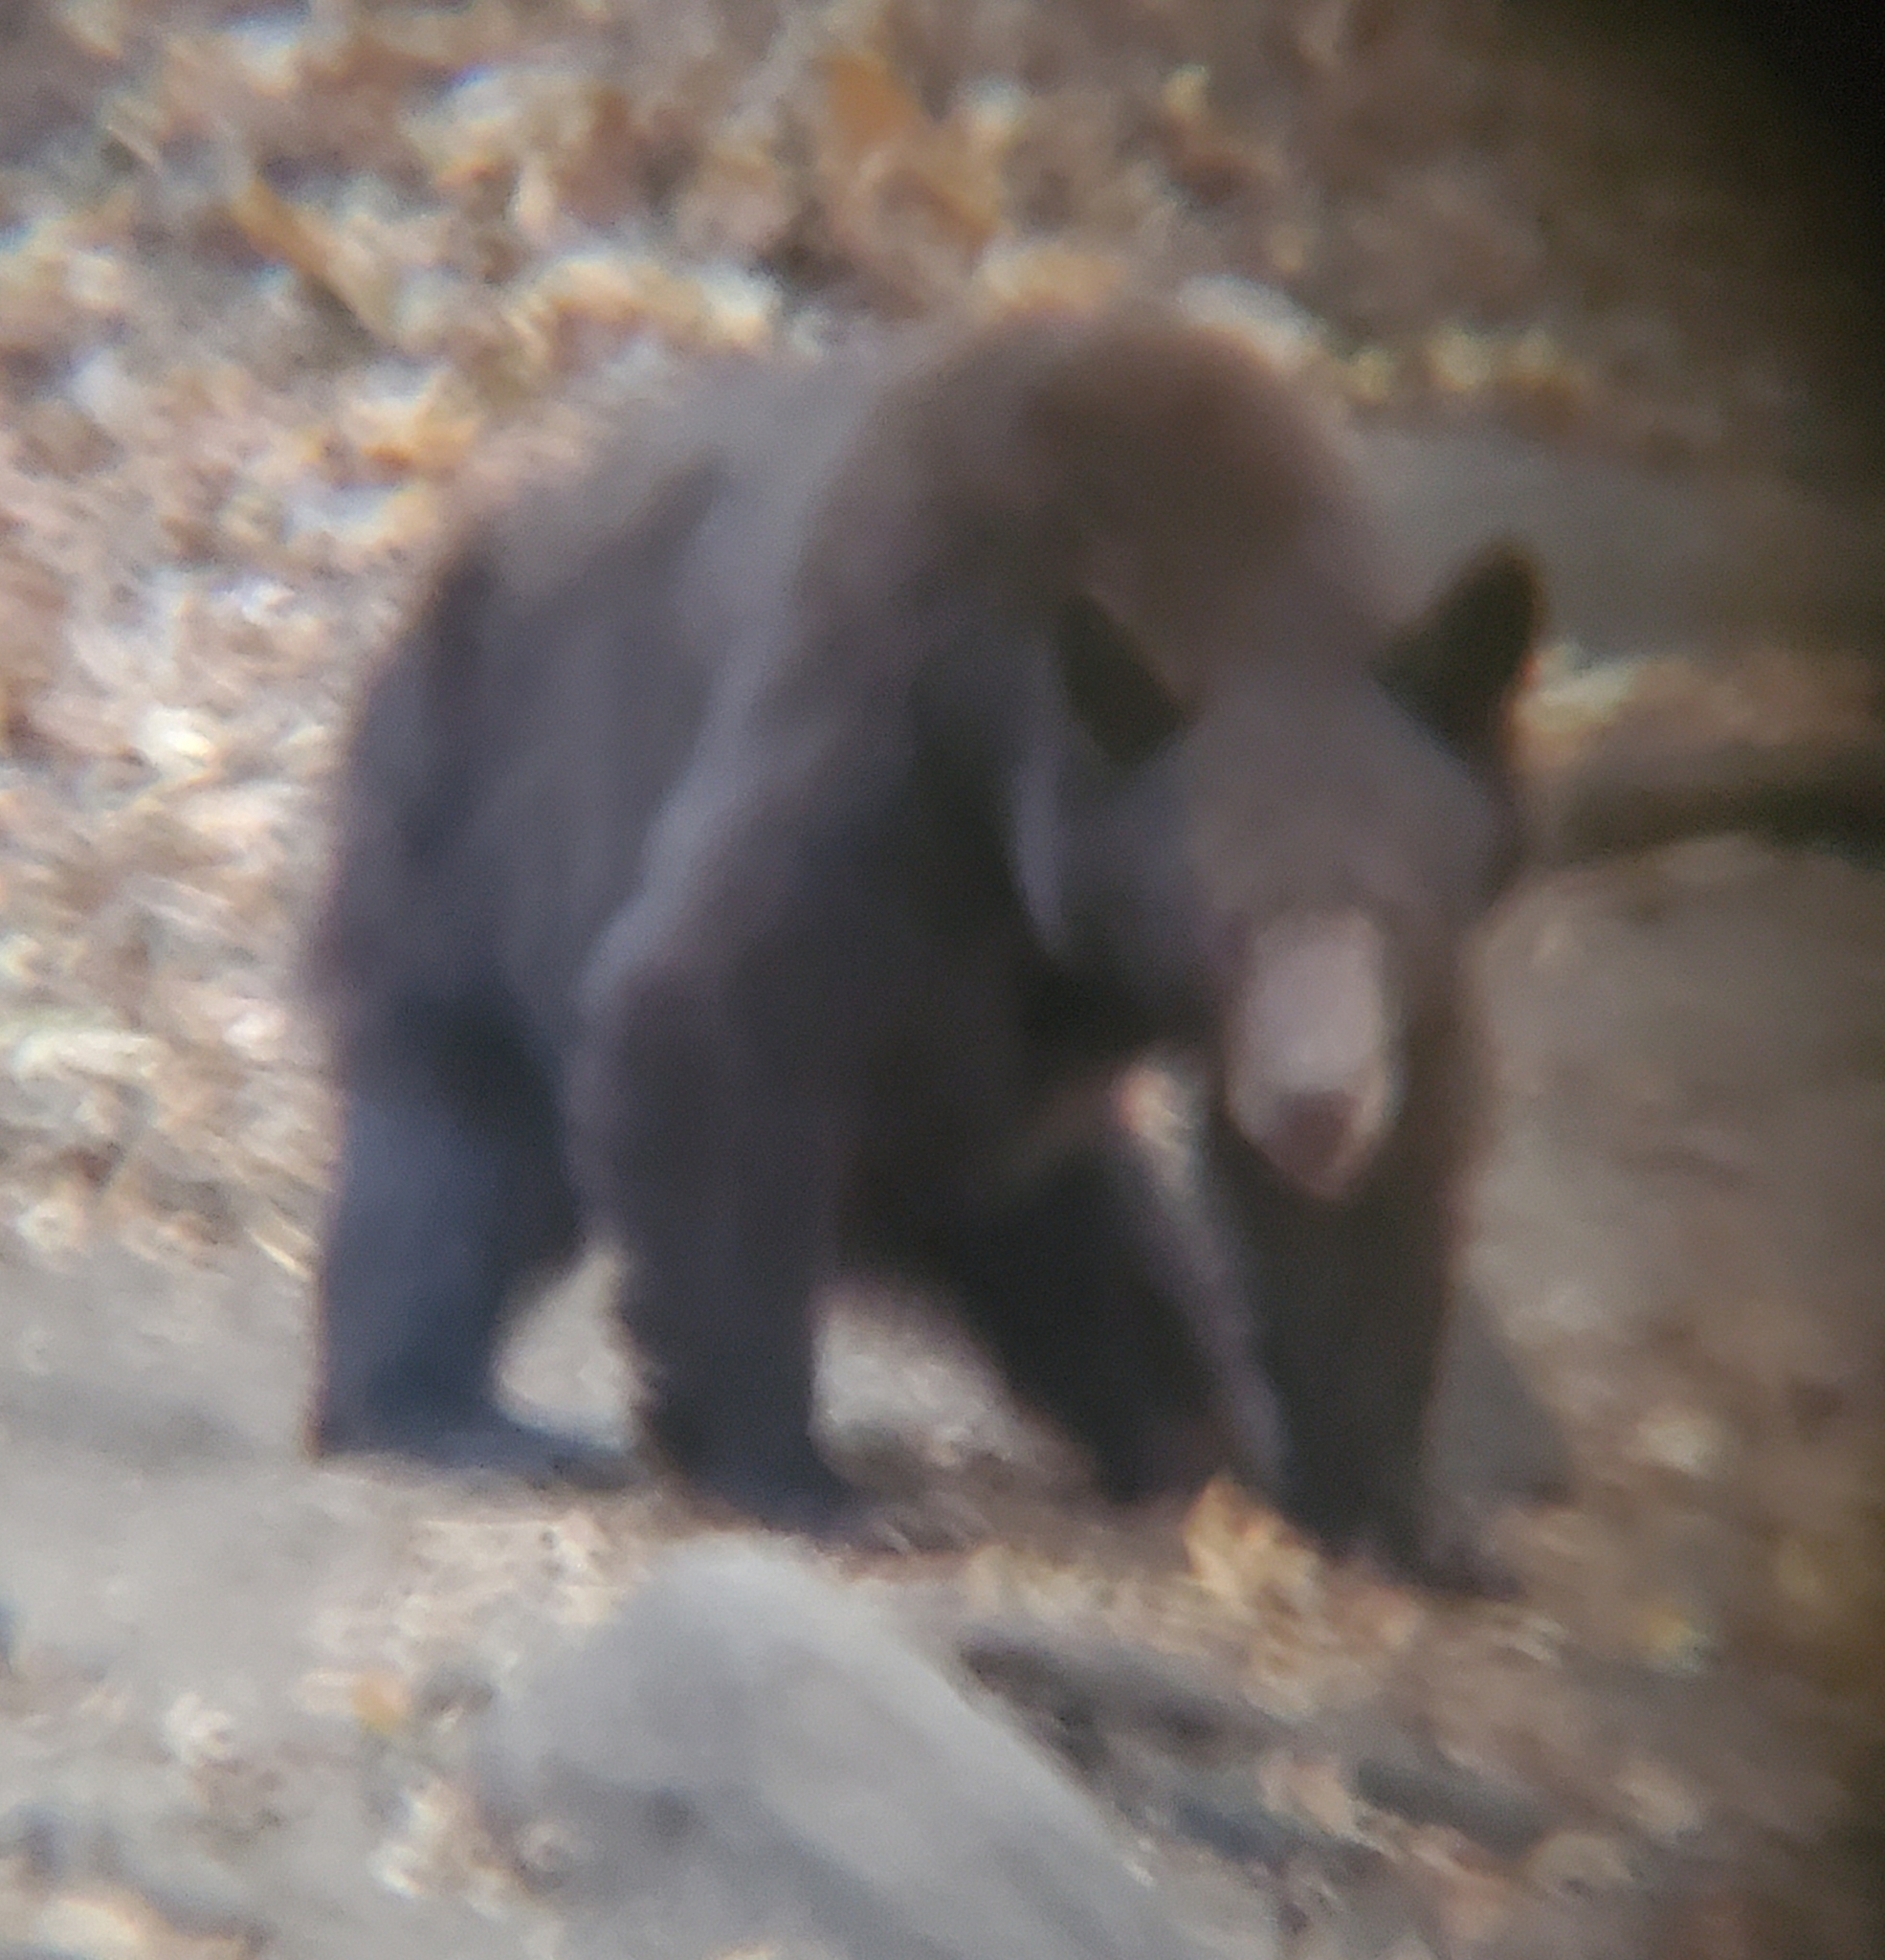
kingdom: Animalia
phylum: Chordata
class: Mammalia
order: Carnivora
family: Ursidae
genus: Ursus
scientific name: Ursus americanus
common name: American black bear
